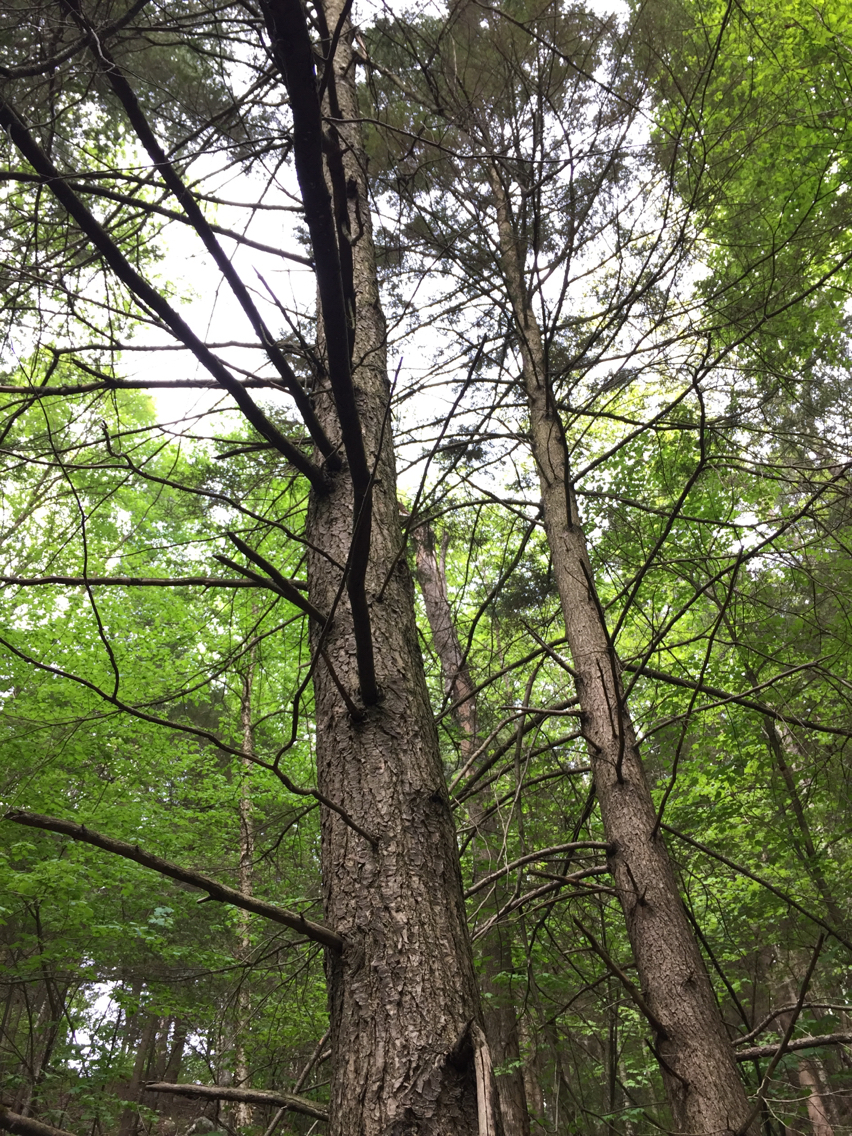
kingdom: Plantae
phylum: Tracheophyta
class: Pinopsida
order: Pinales
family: Pinaceae
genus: Tsuga
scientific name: Tsuga canadensis
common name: Eastern hemlock
